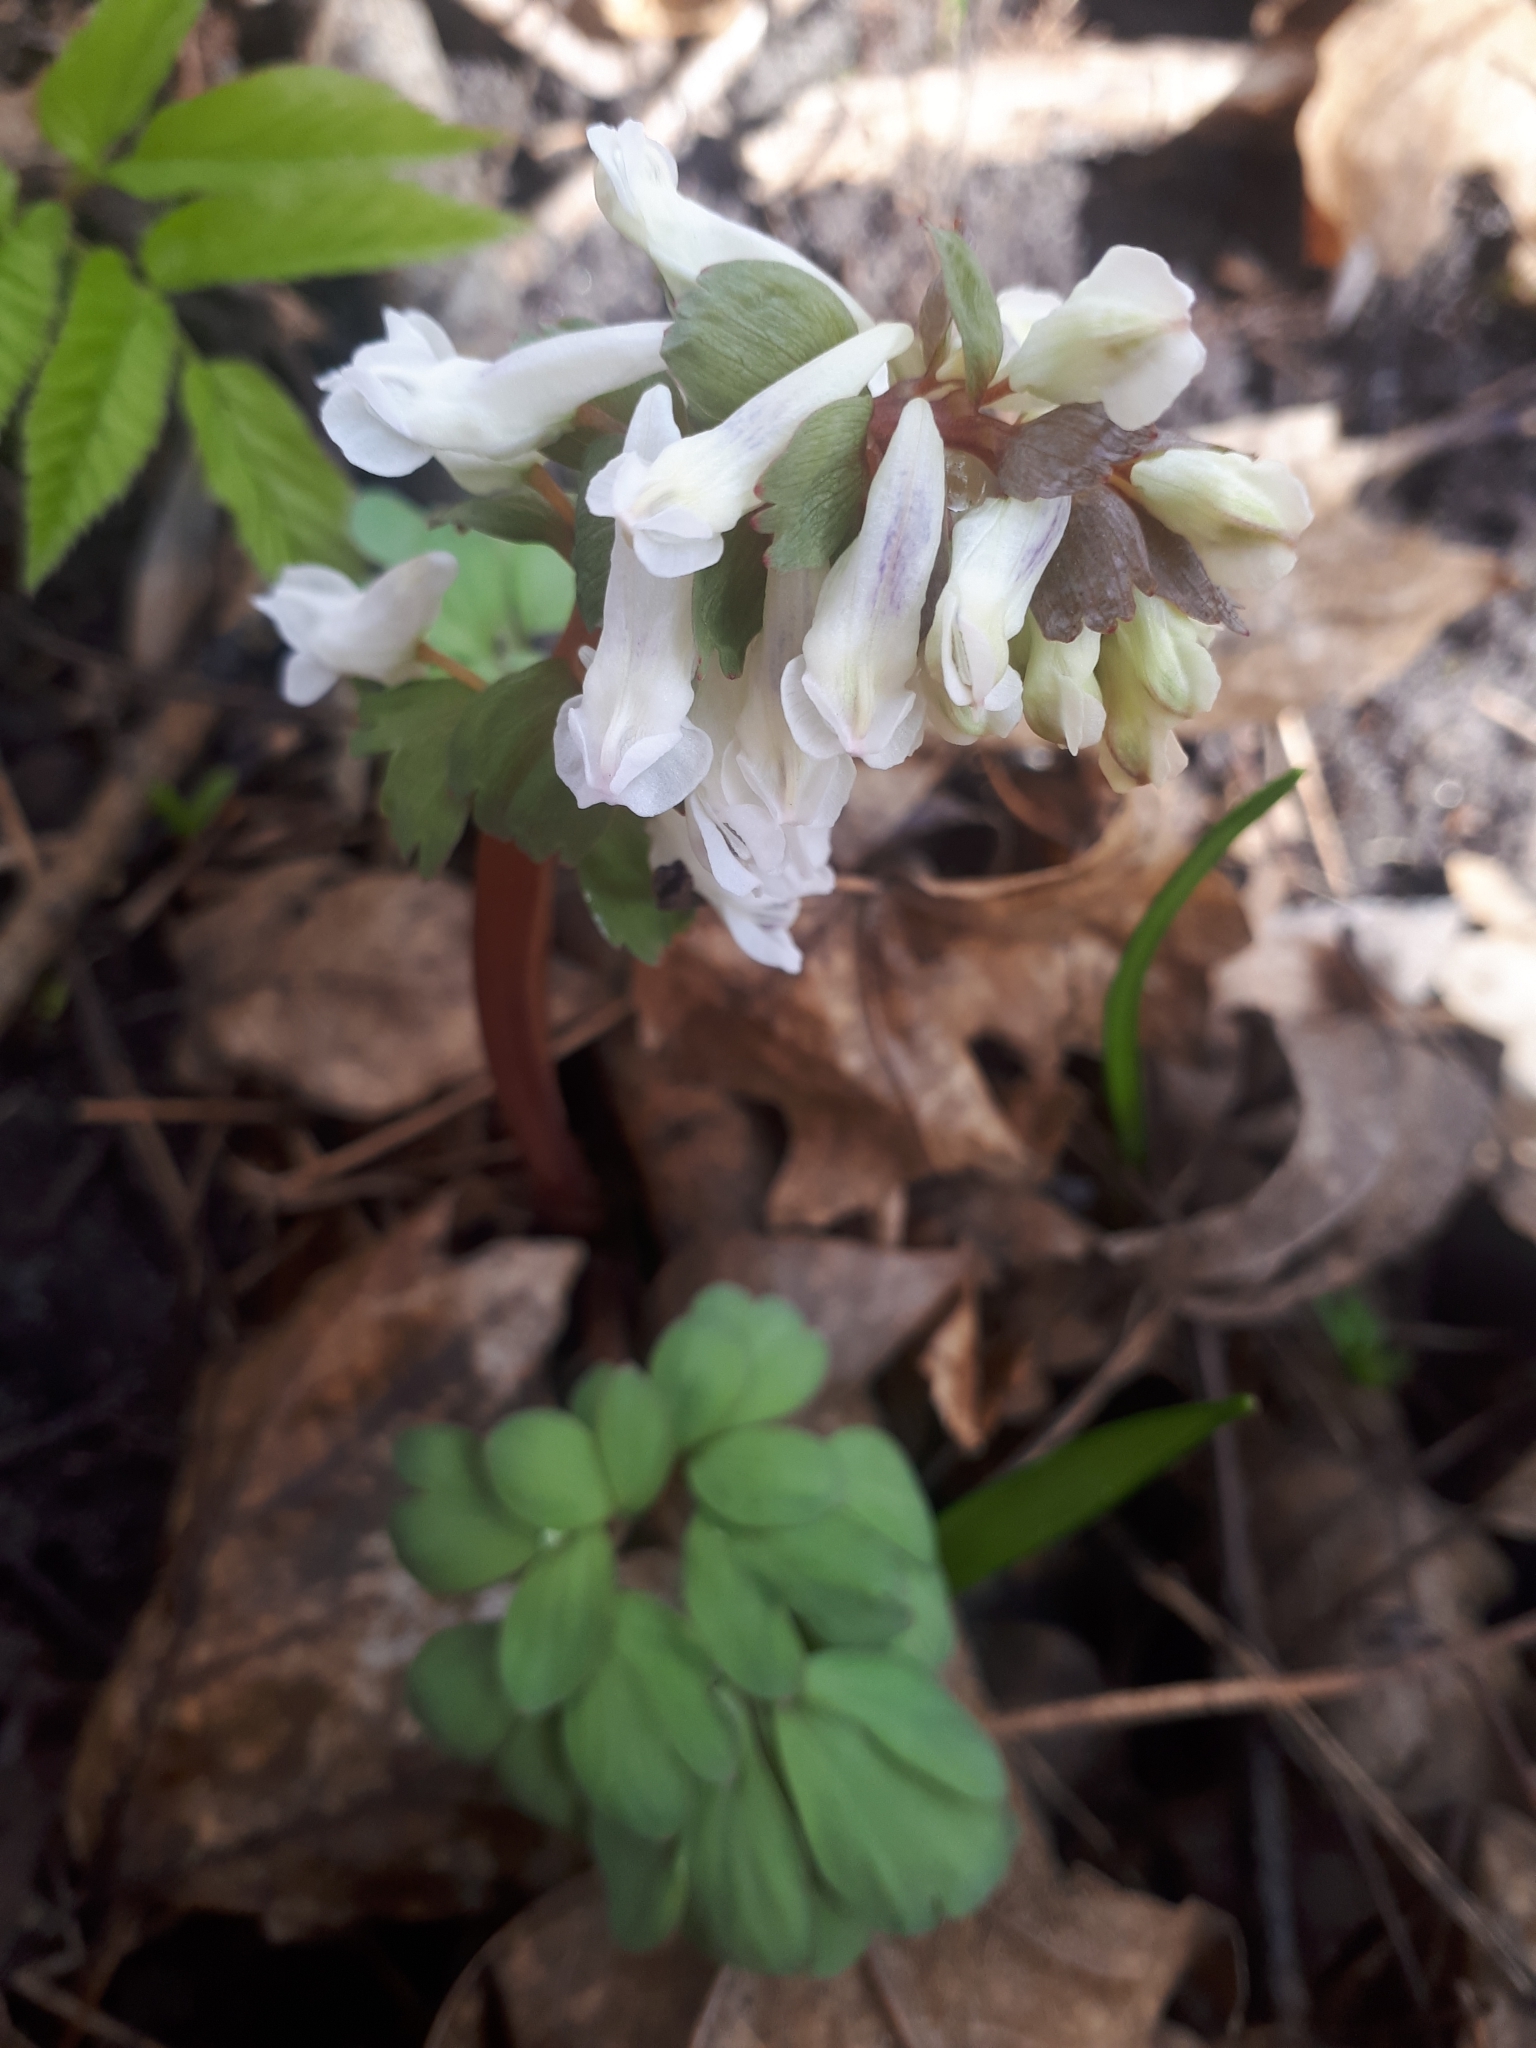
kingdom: Plantae
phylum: Tracheophyta
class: Magnoliopsida
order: Ranunculales
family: Papaveraceae
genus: Corydalis
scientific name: Corydalis solida
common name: Bird-in-a-bush
